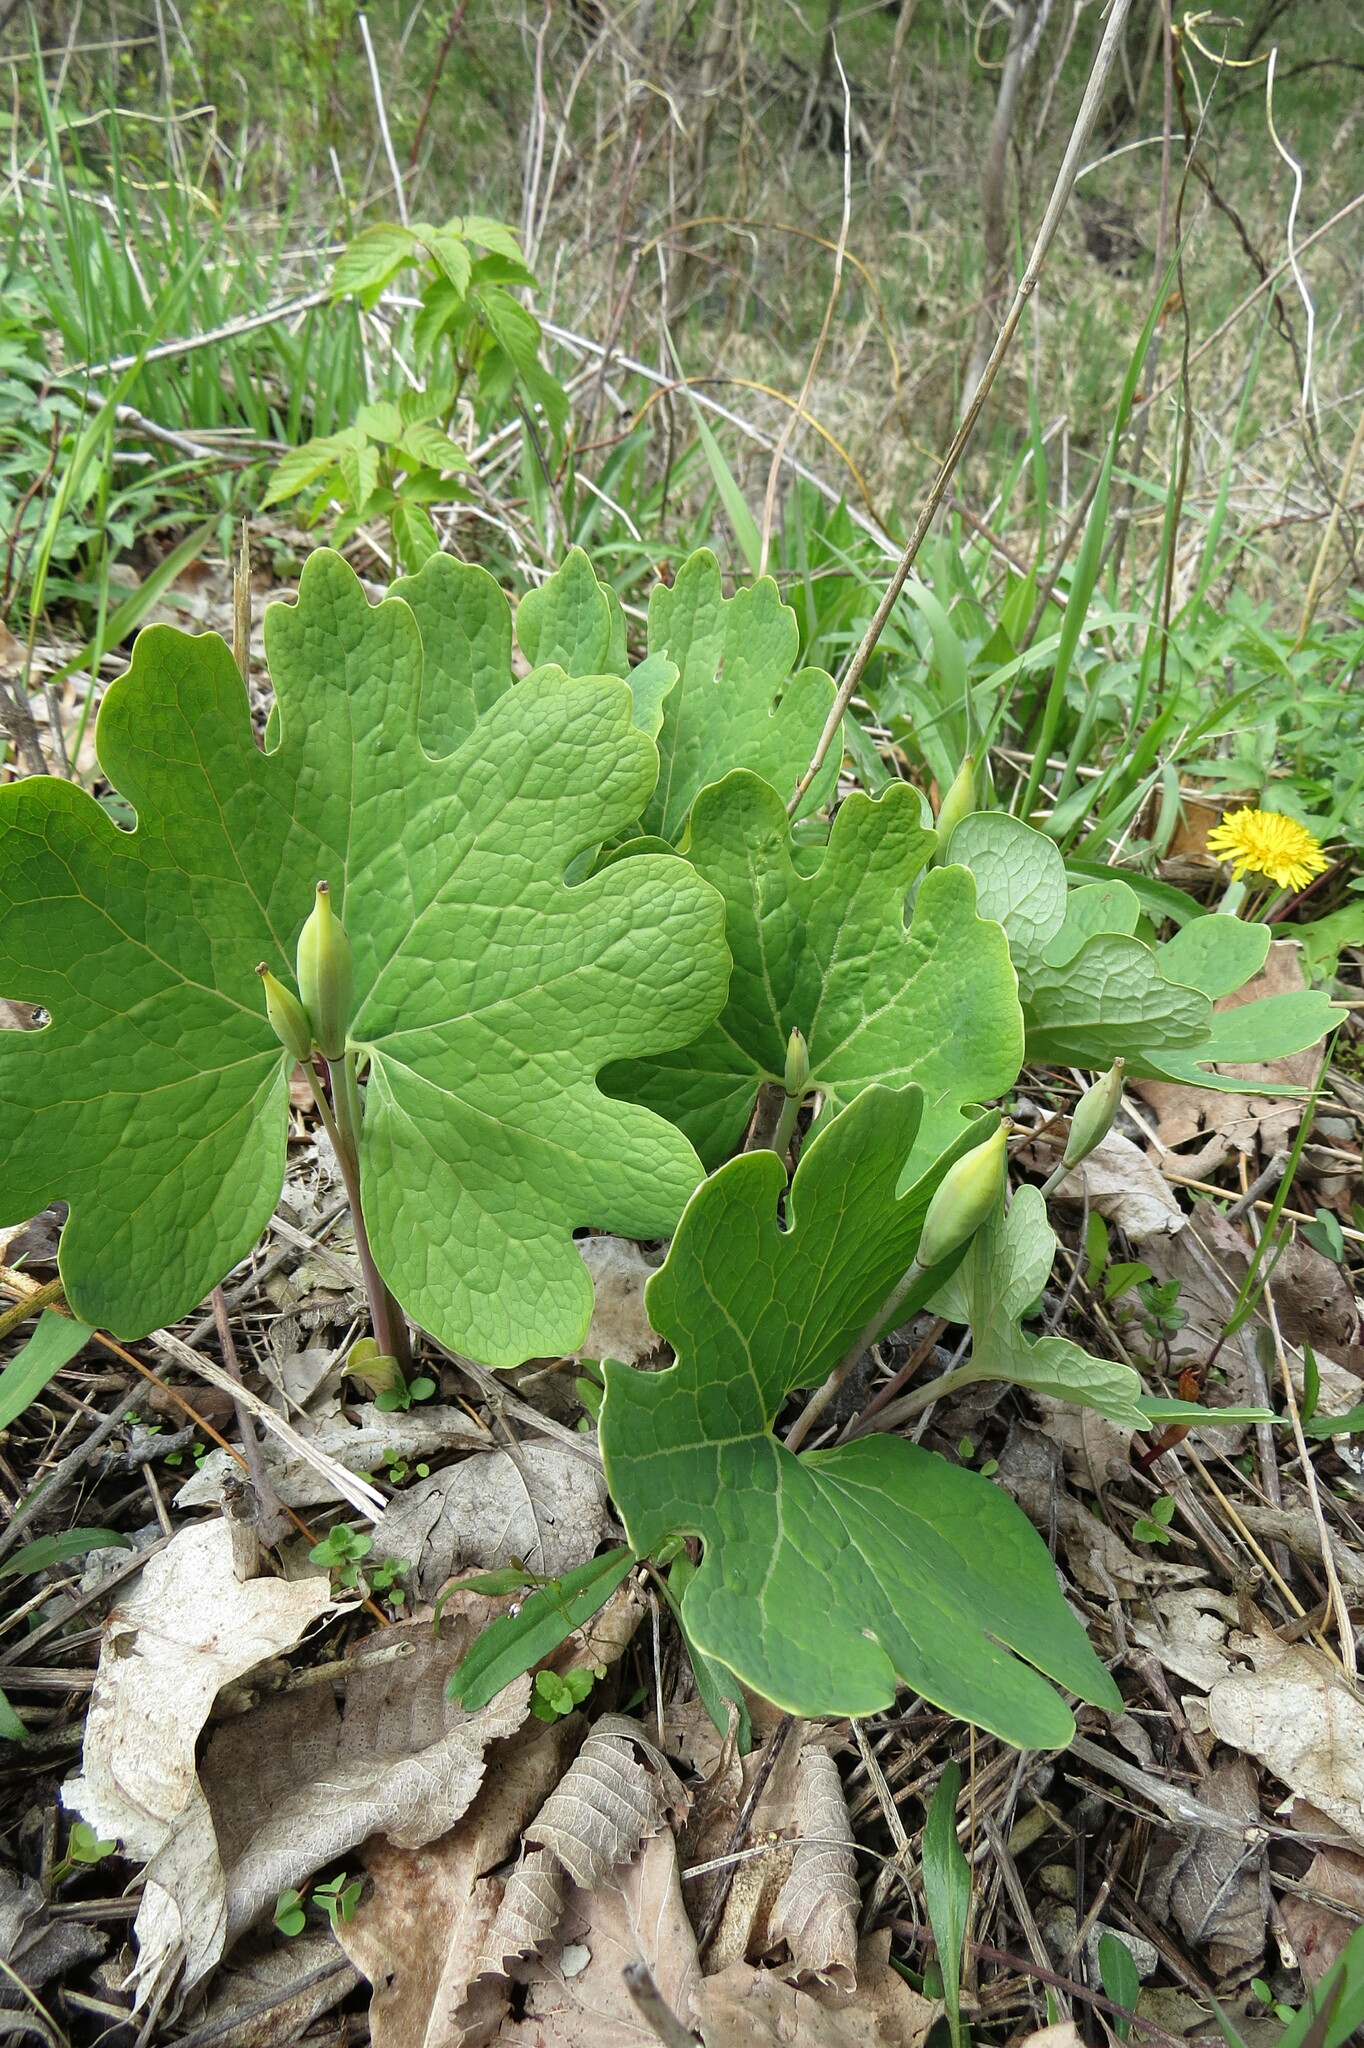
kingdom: Plantae
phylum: Tracheophyta
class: Magnoliopsida
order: Ranunculales
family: Papaveraceae
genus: Sanguinaria
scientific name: Sanguinaria canadensis
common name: Bloodroot
